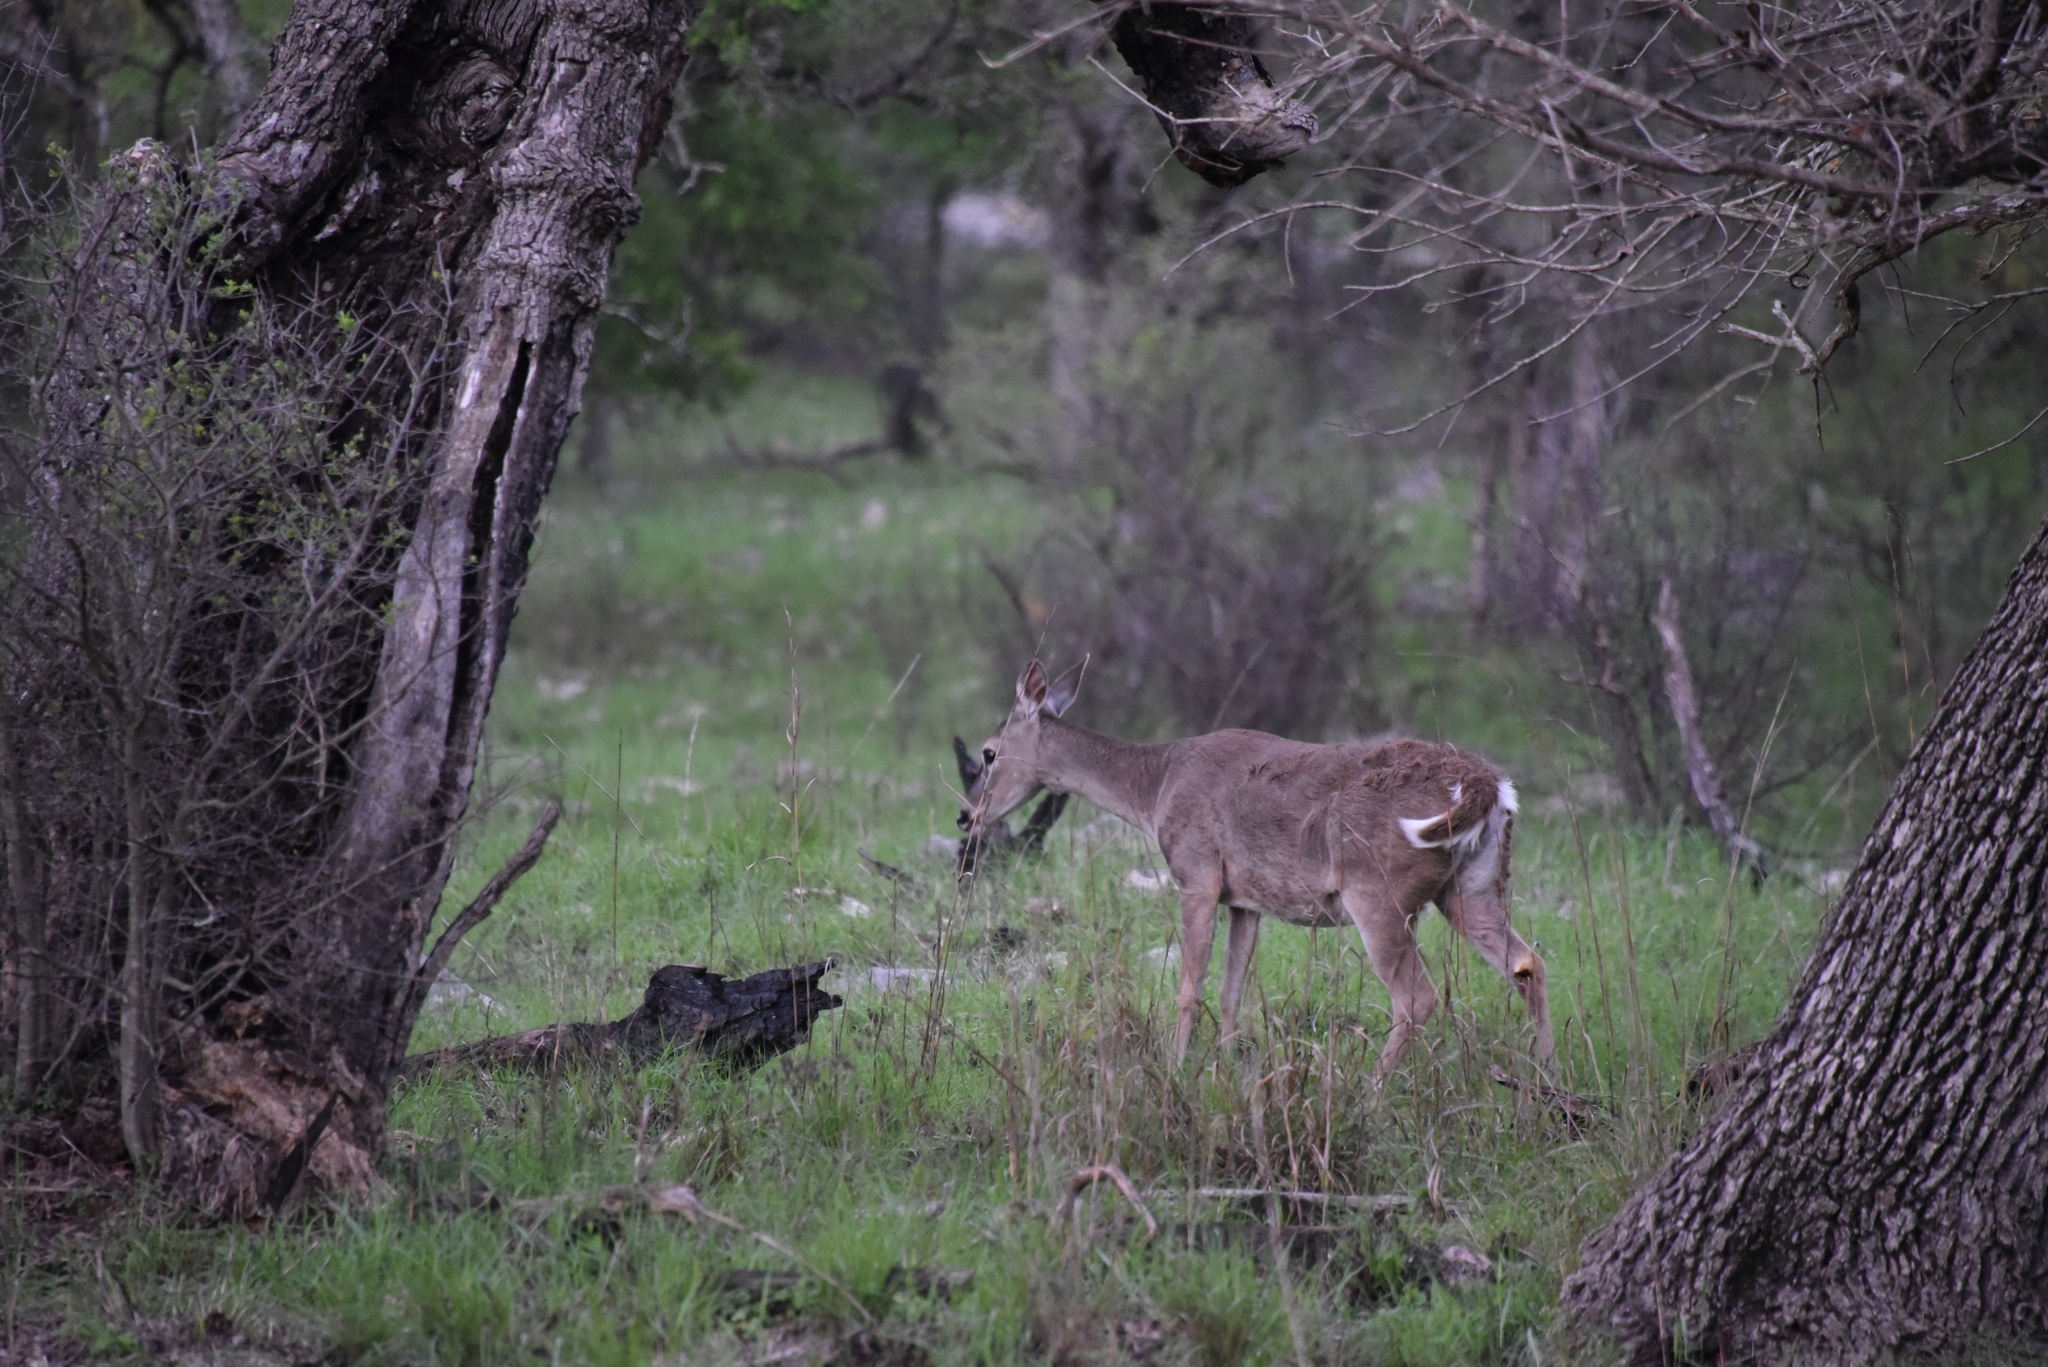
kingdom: Animalia
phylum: Chordata
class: Mammalia
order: Artiodactyla
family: Cervidae
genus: Odocoileus
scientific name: Odocoileus virginianus
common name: White-tailed deer
